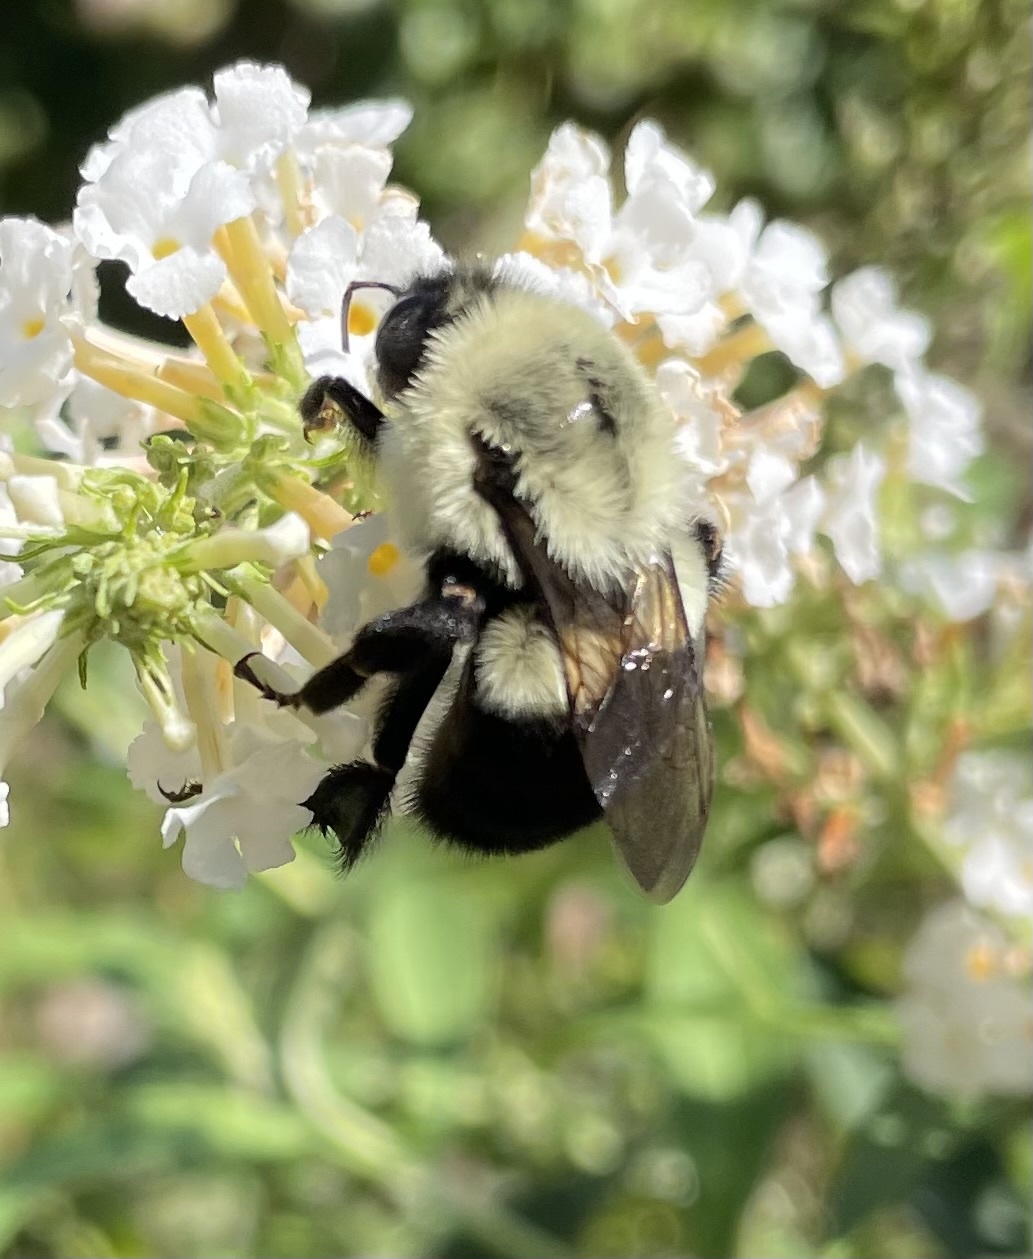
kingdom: Animalia
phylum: Arthropoda
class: Insecta
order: Hymenoptera
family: Apidae
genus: Bombus
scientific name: Bombus impatiens
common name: Common eastern bumble bee
